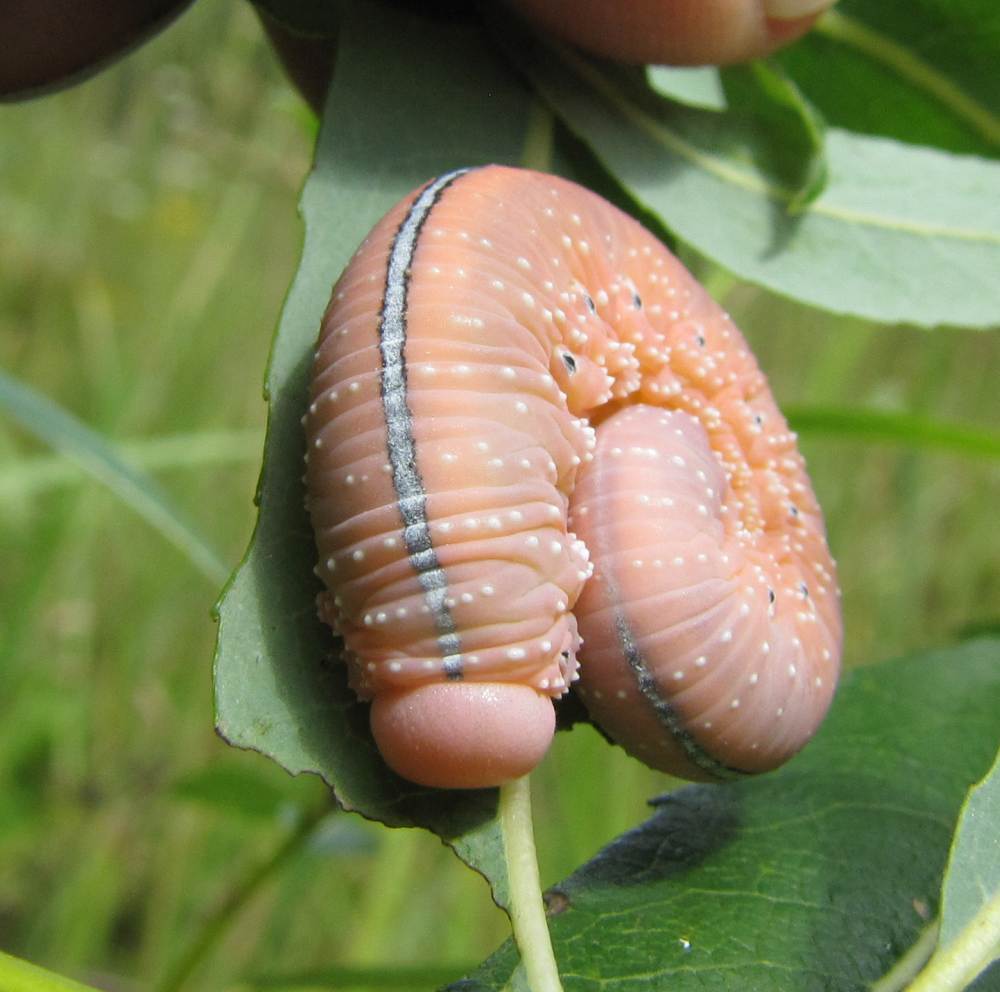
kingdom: Animalia
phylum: Arthropoda
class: Insecta
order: Hymenoptera
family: Cimbicidae
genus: Cimbex
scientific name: Cimbex americana
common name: Elm sawfly
